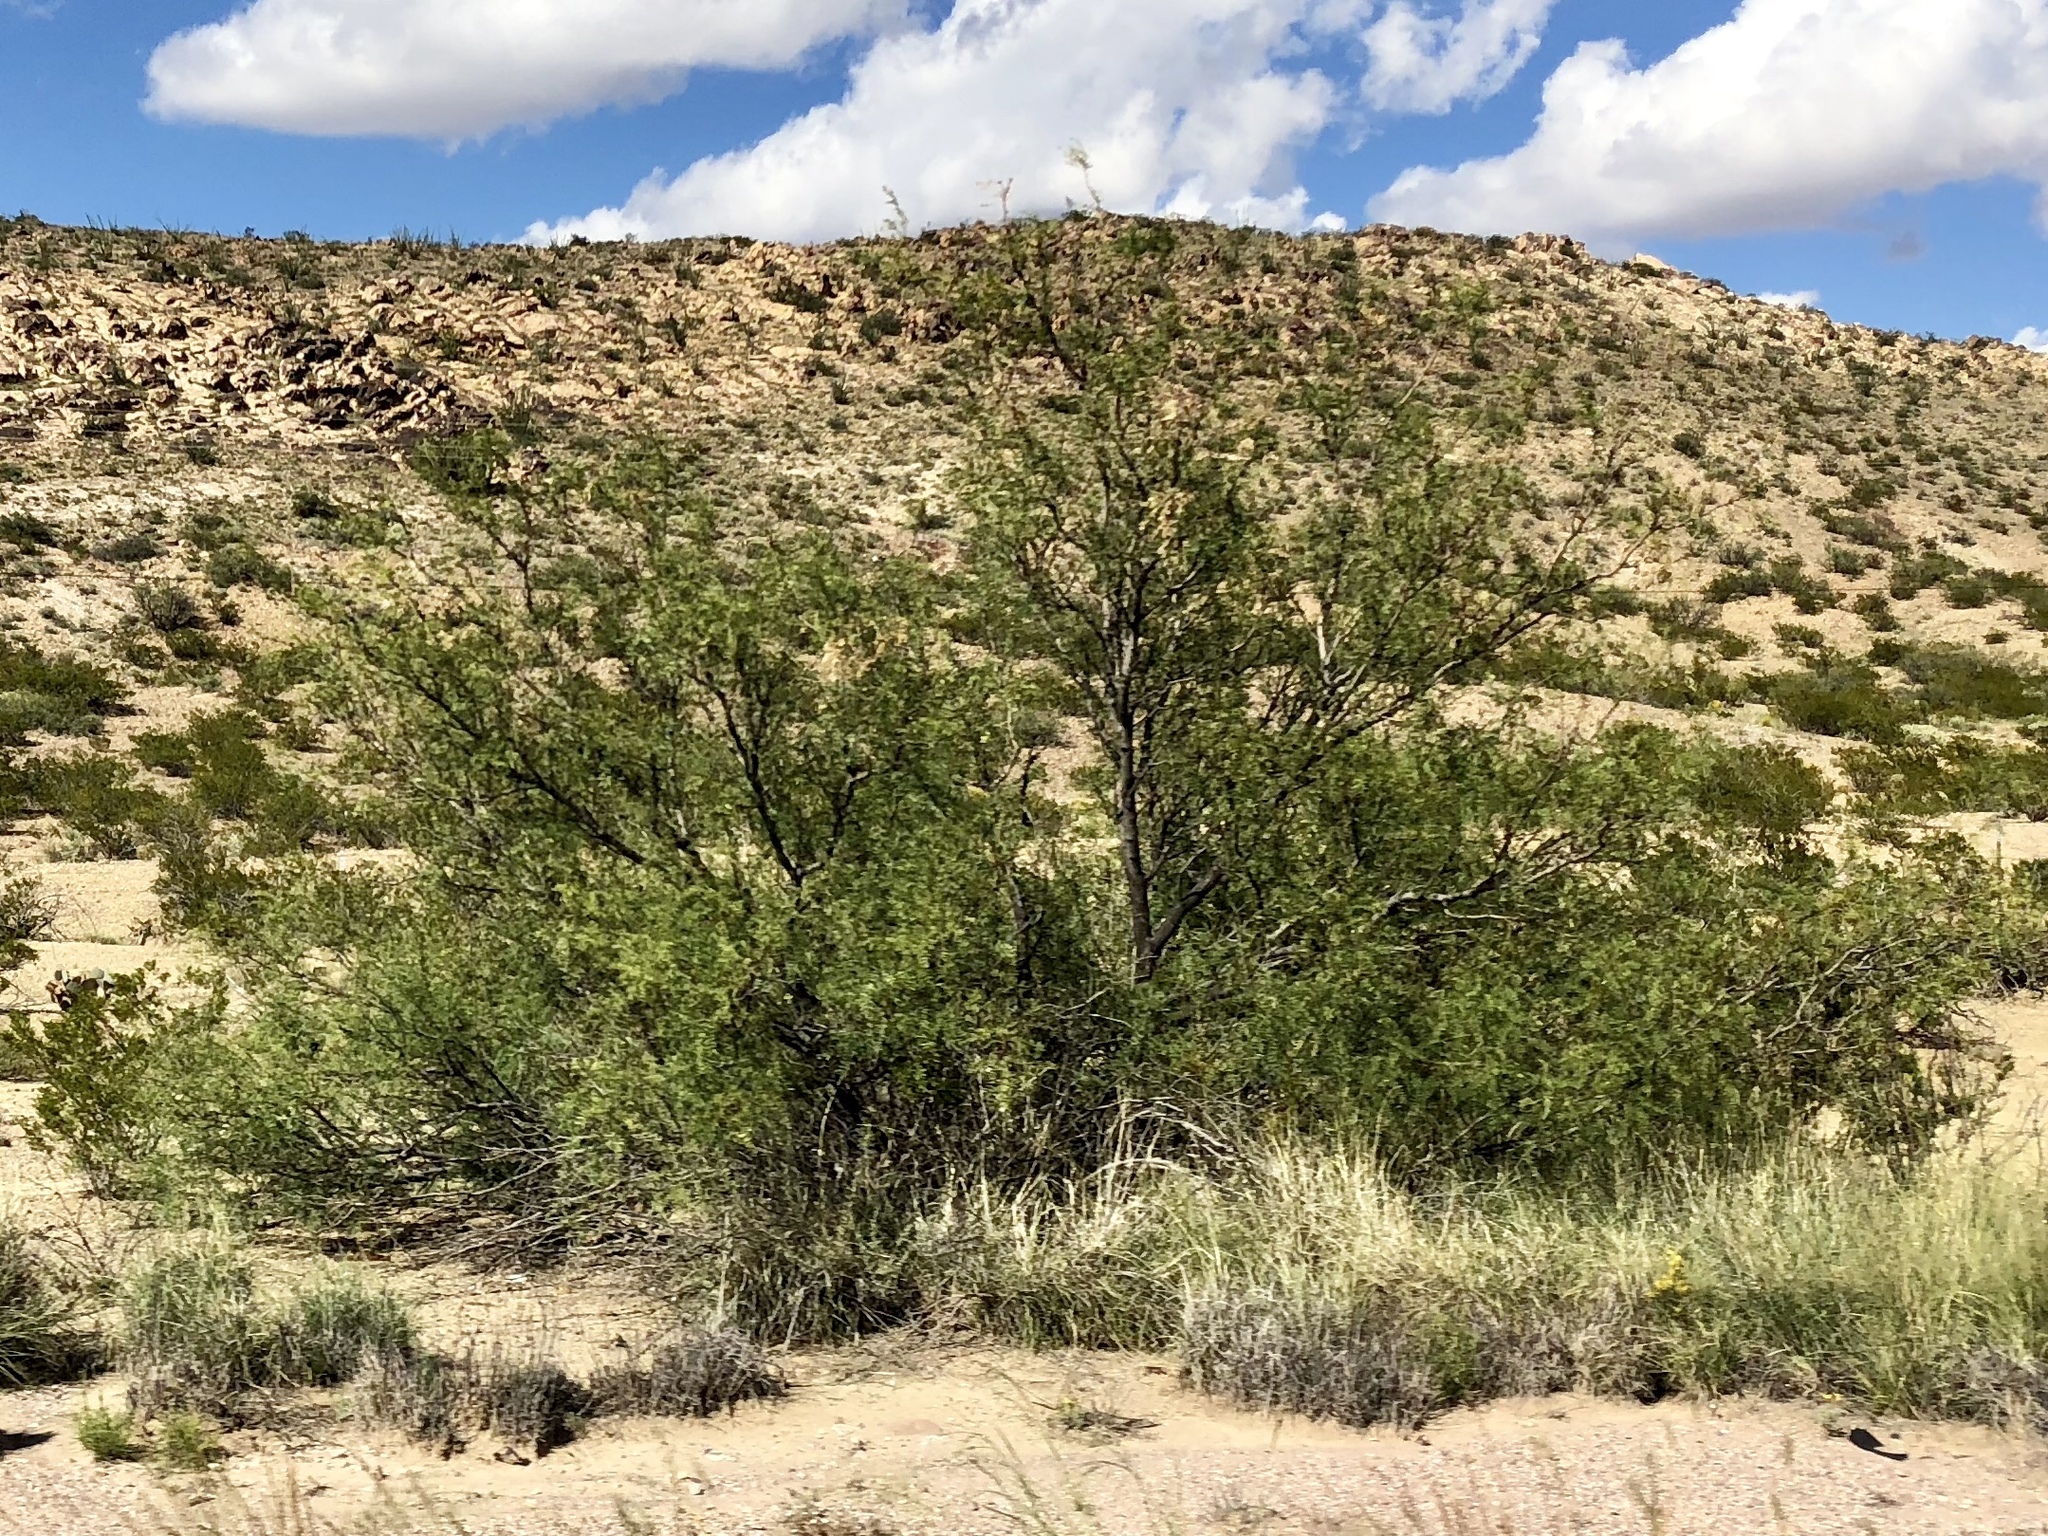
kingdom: Plantae
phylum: Tracheophyta
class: Magnoliopsida
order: Fabales
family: Fabaceae
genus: Prosopis
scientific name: Prosopis glandulosa
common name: Honey mesquite
